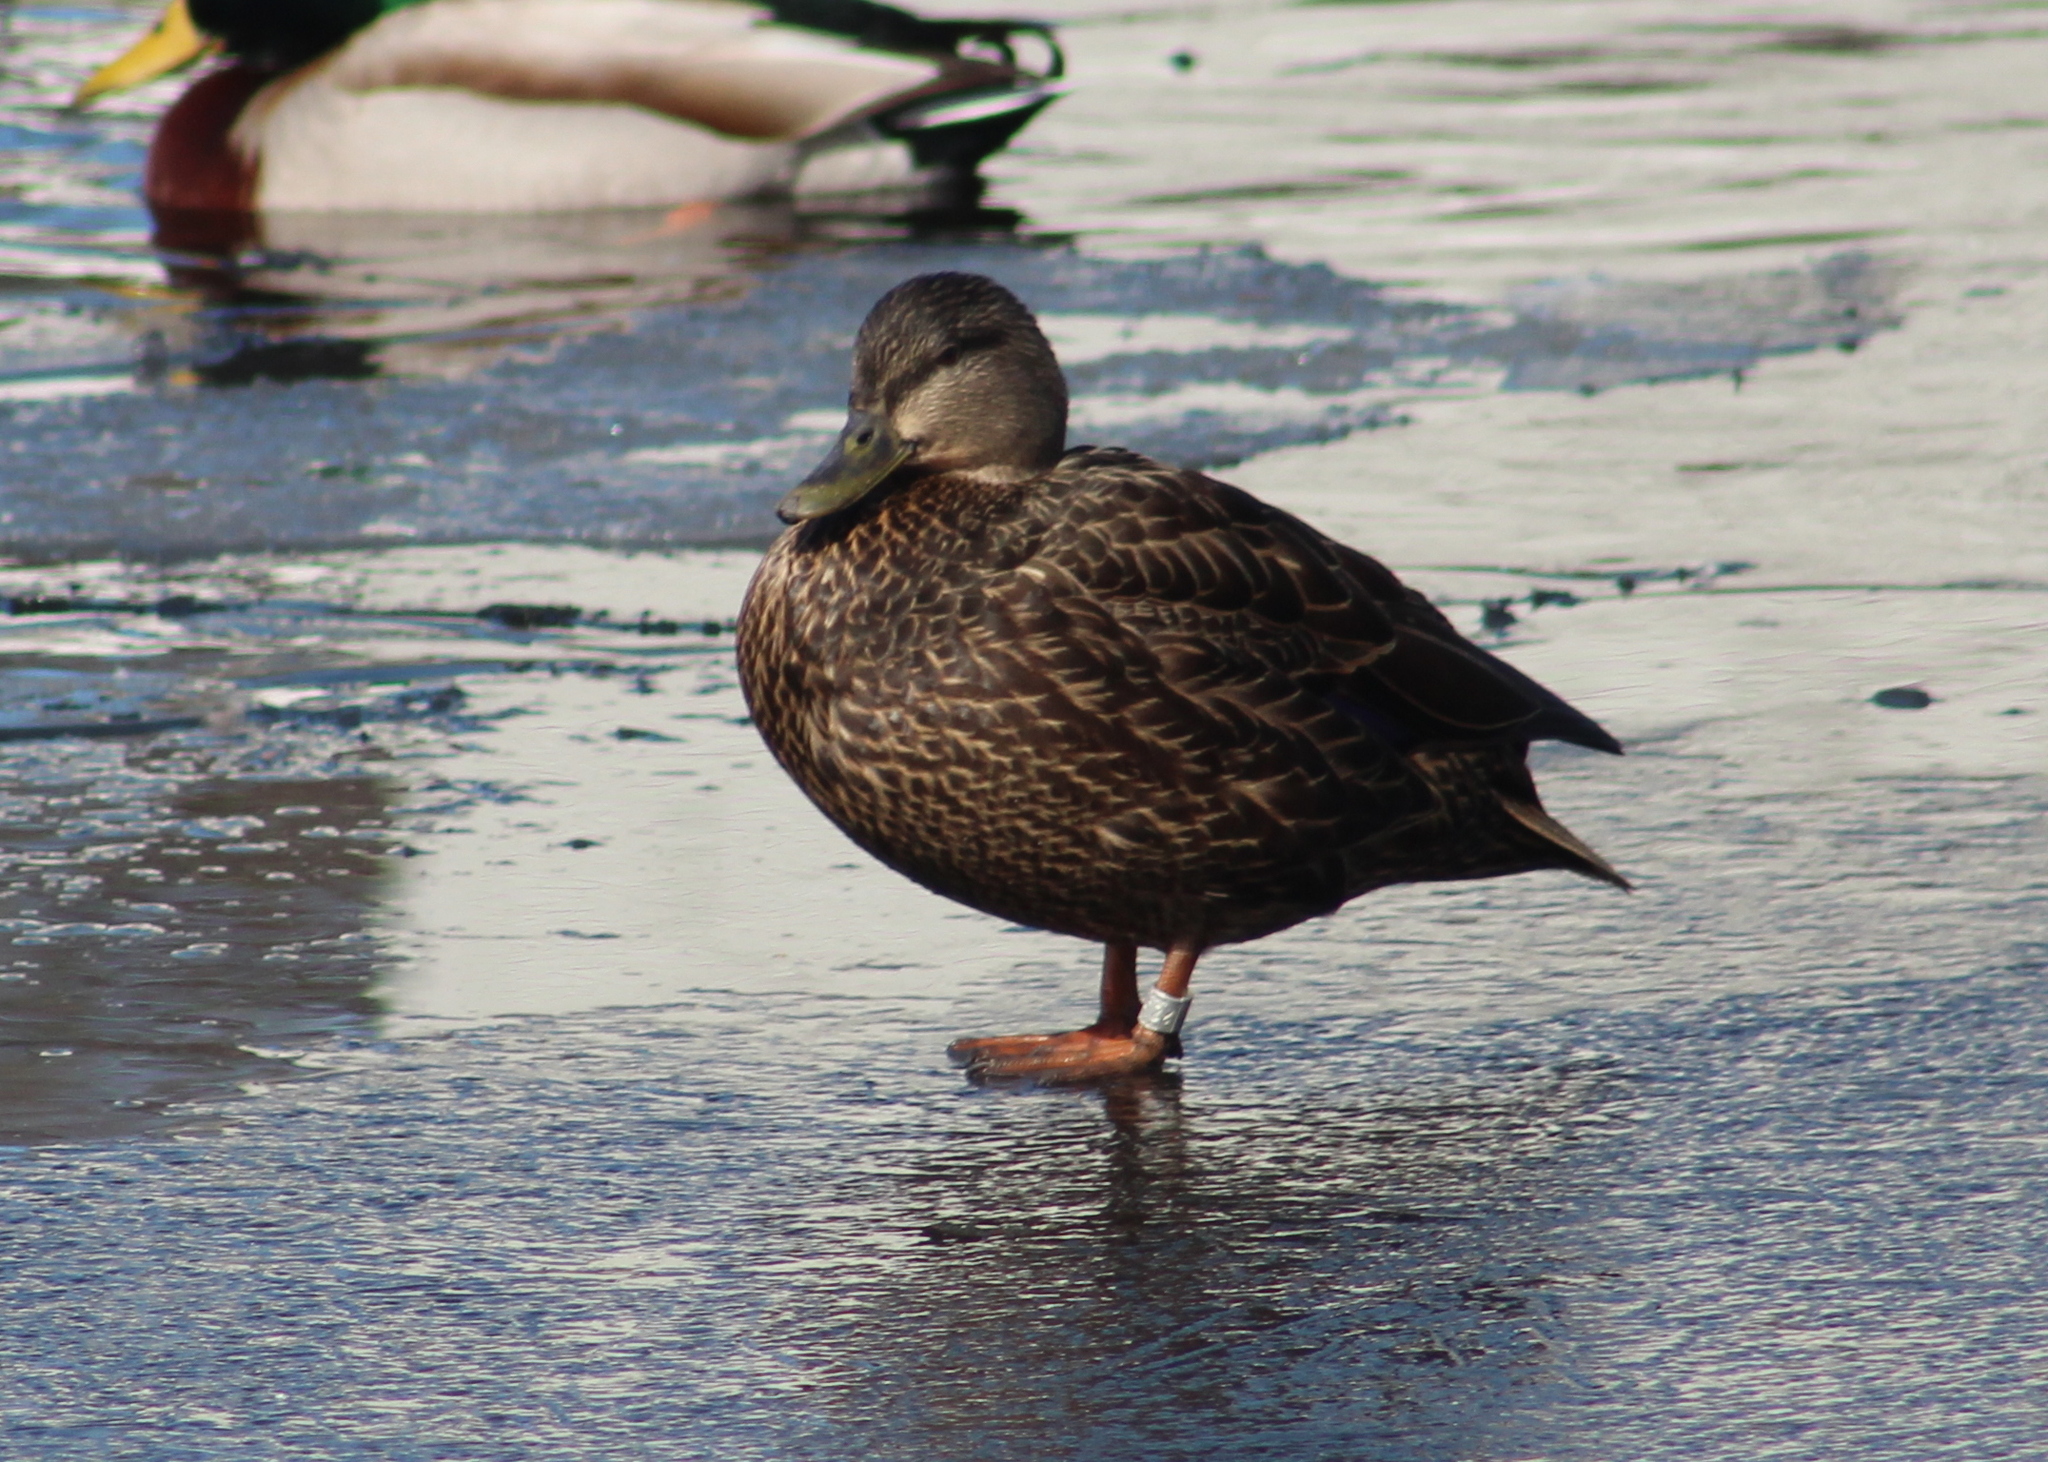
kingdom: Animalia
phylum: Chordata
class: Aves
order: Anseriformes
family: Anatidae
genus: Anas
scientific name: Anas rubripes
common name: American black duck
